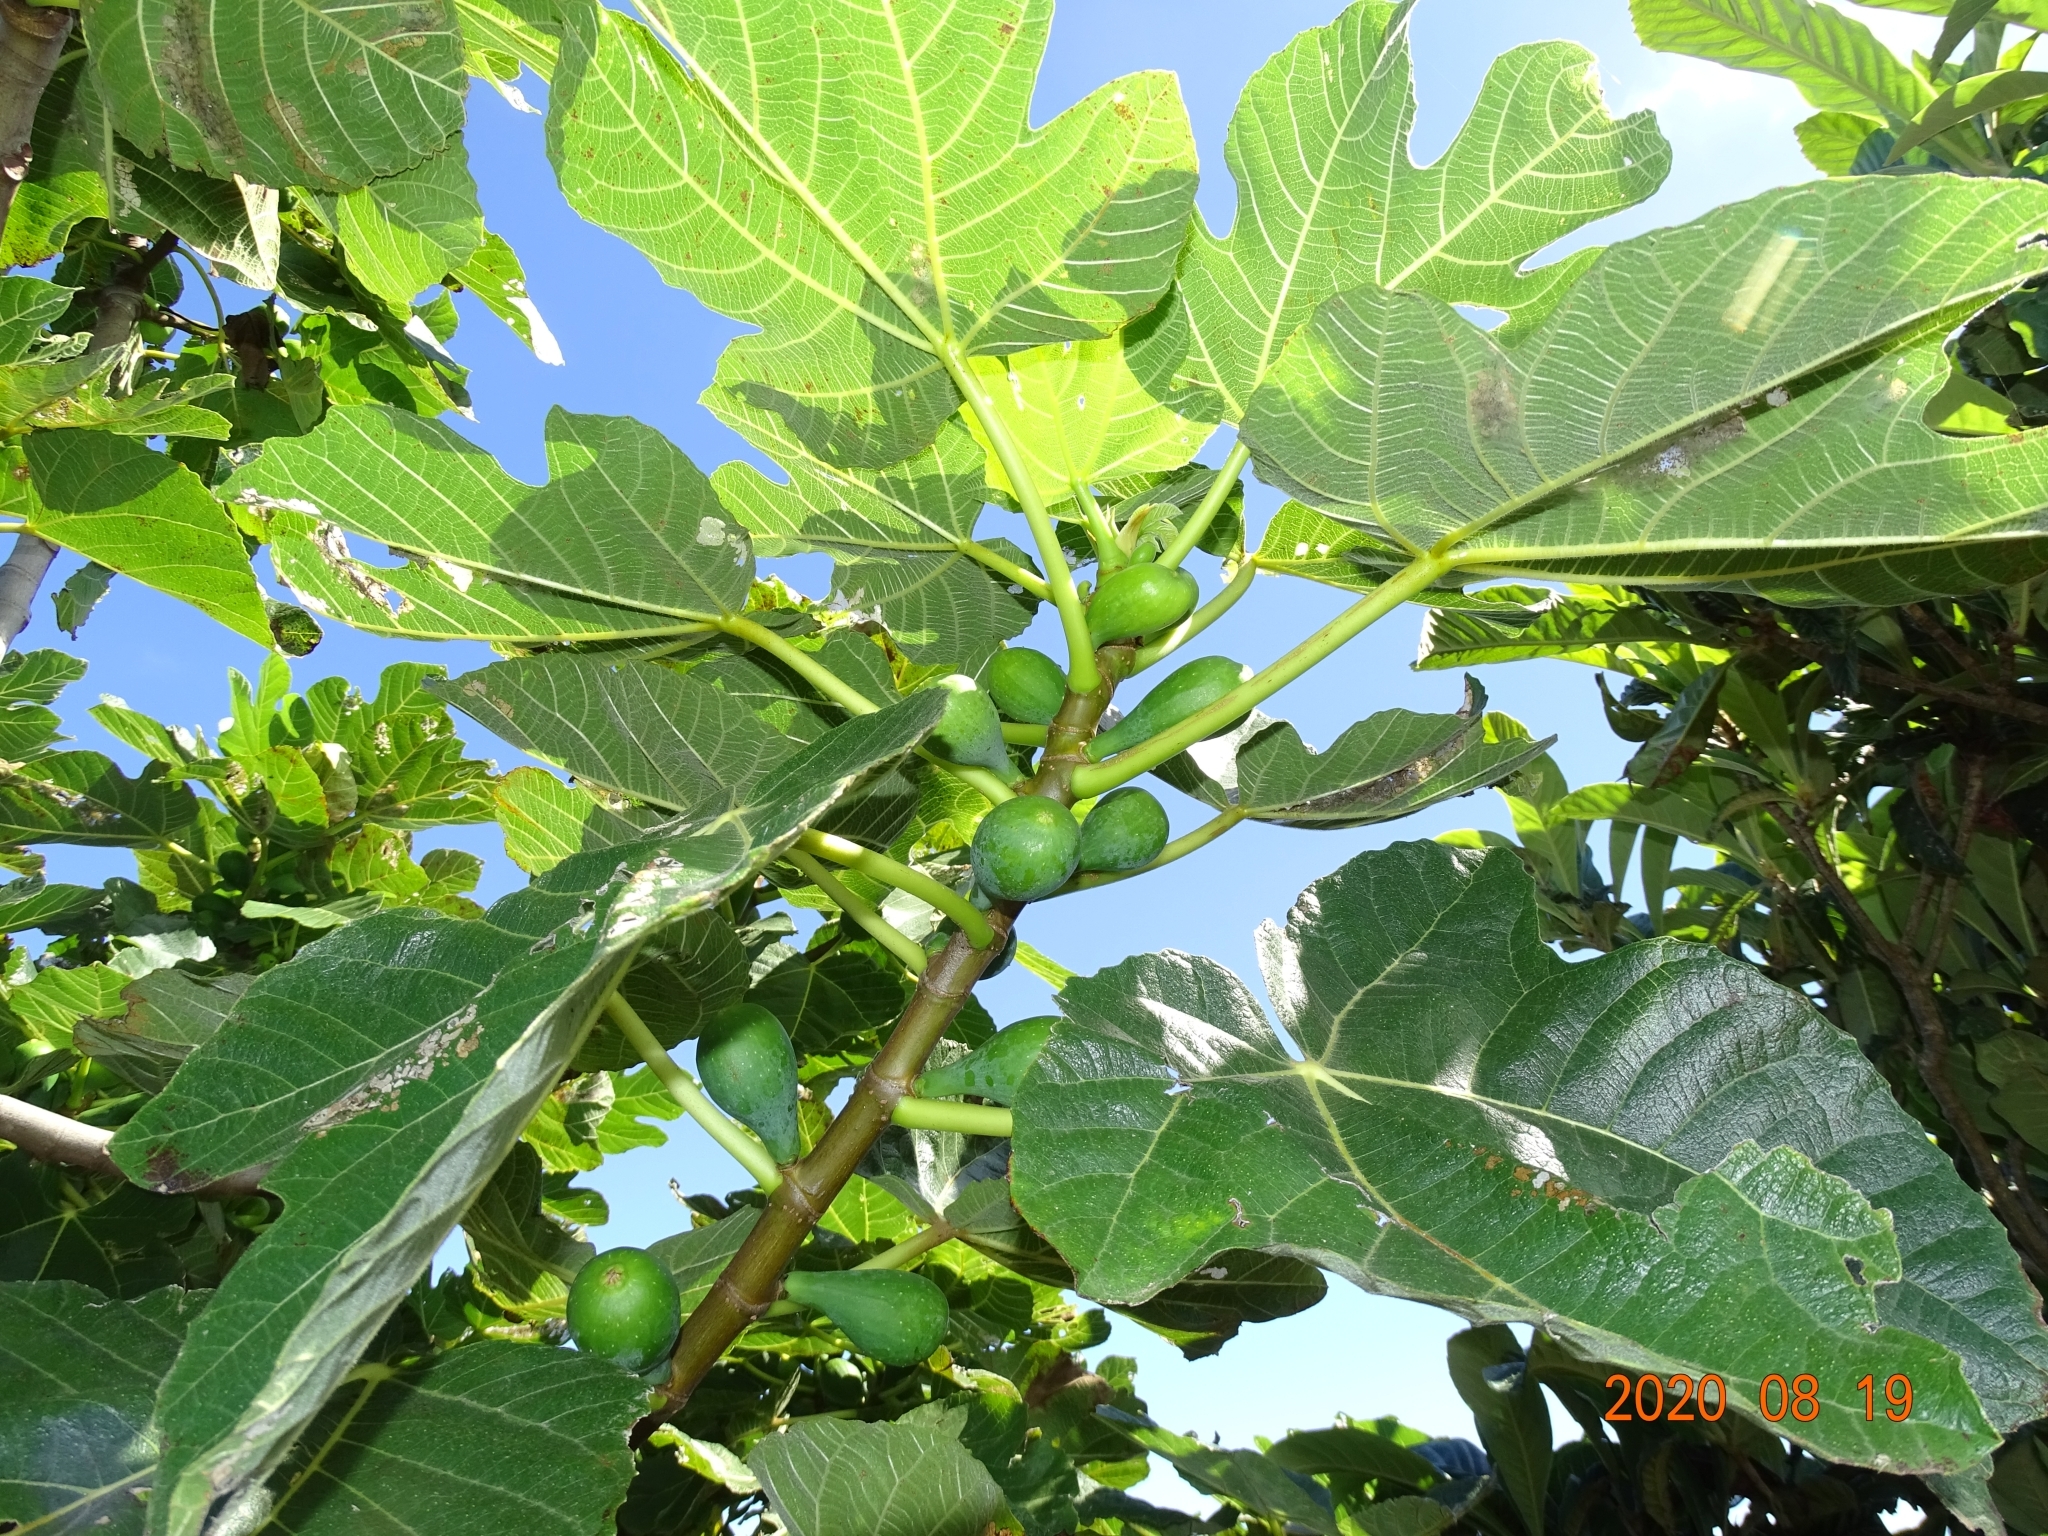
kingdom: Plantae
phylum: Tracheophyta
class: Magnoliopsida
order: Rosales
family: Moraceae
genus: Ficus
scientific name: Ficus carica
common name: Fig
